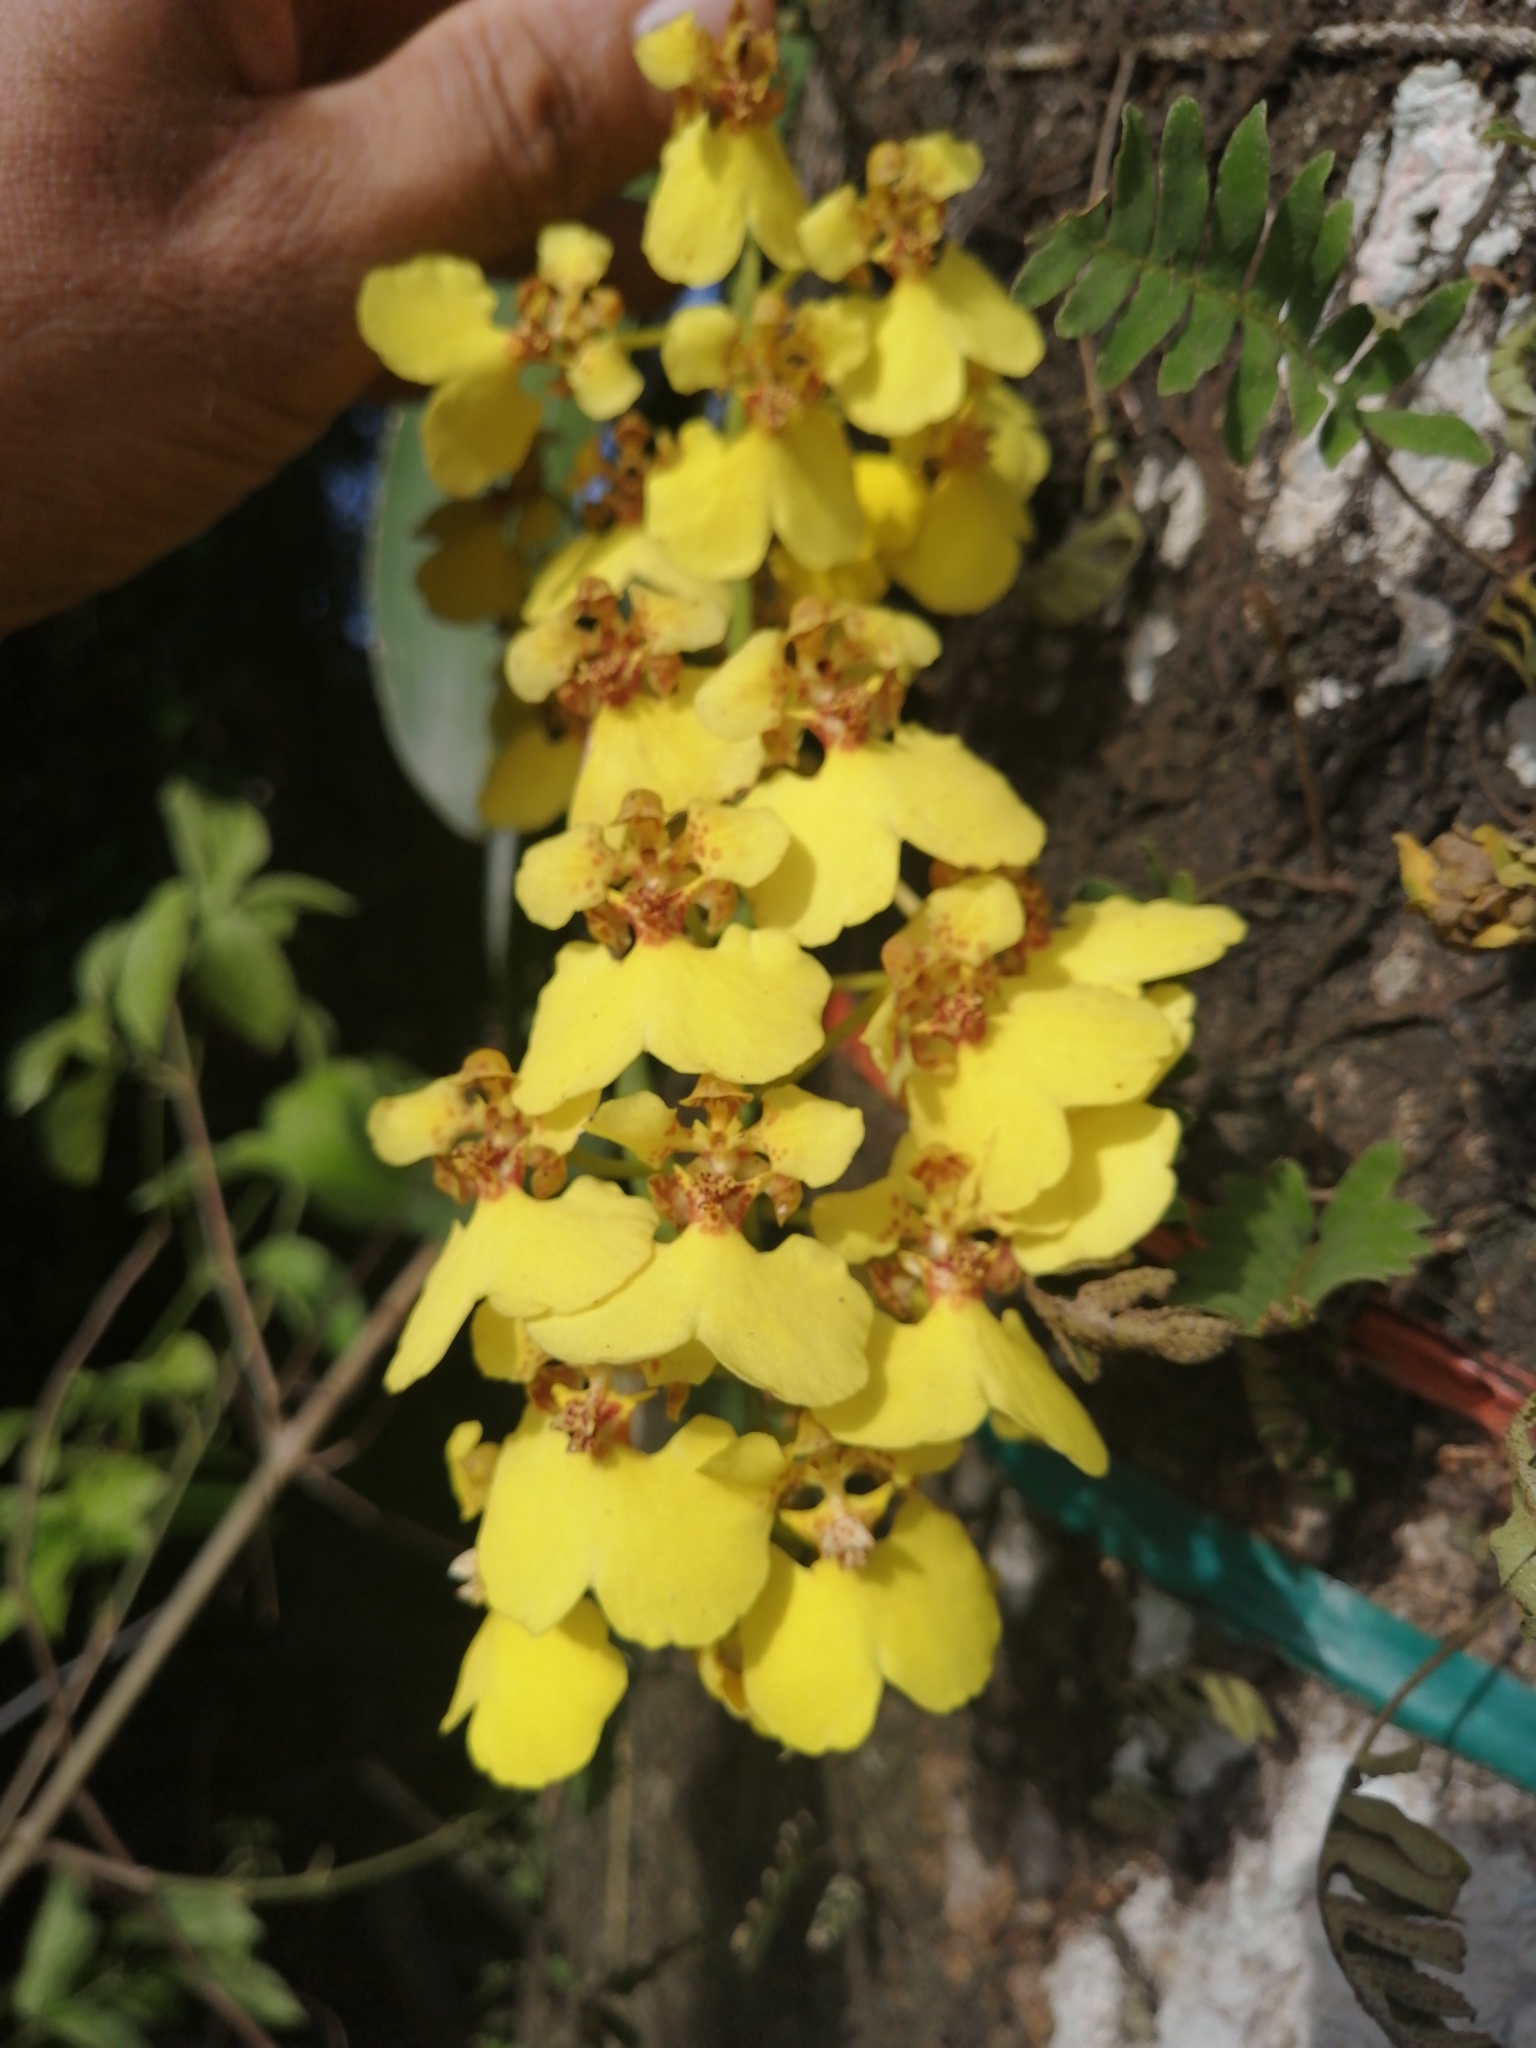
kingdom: Plantae
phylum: Tracheophyta
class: Liliopsida
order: Asparagales
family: Orchidaceae
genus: Rossioglossum
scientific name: Rossioglossum ampliatum
